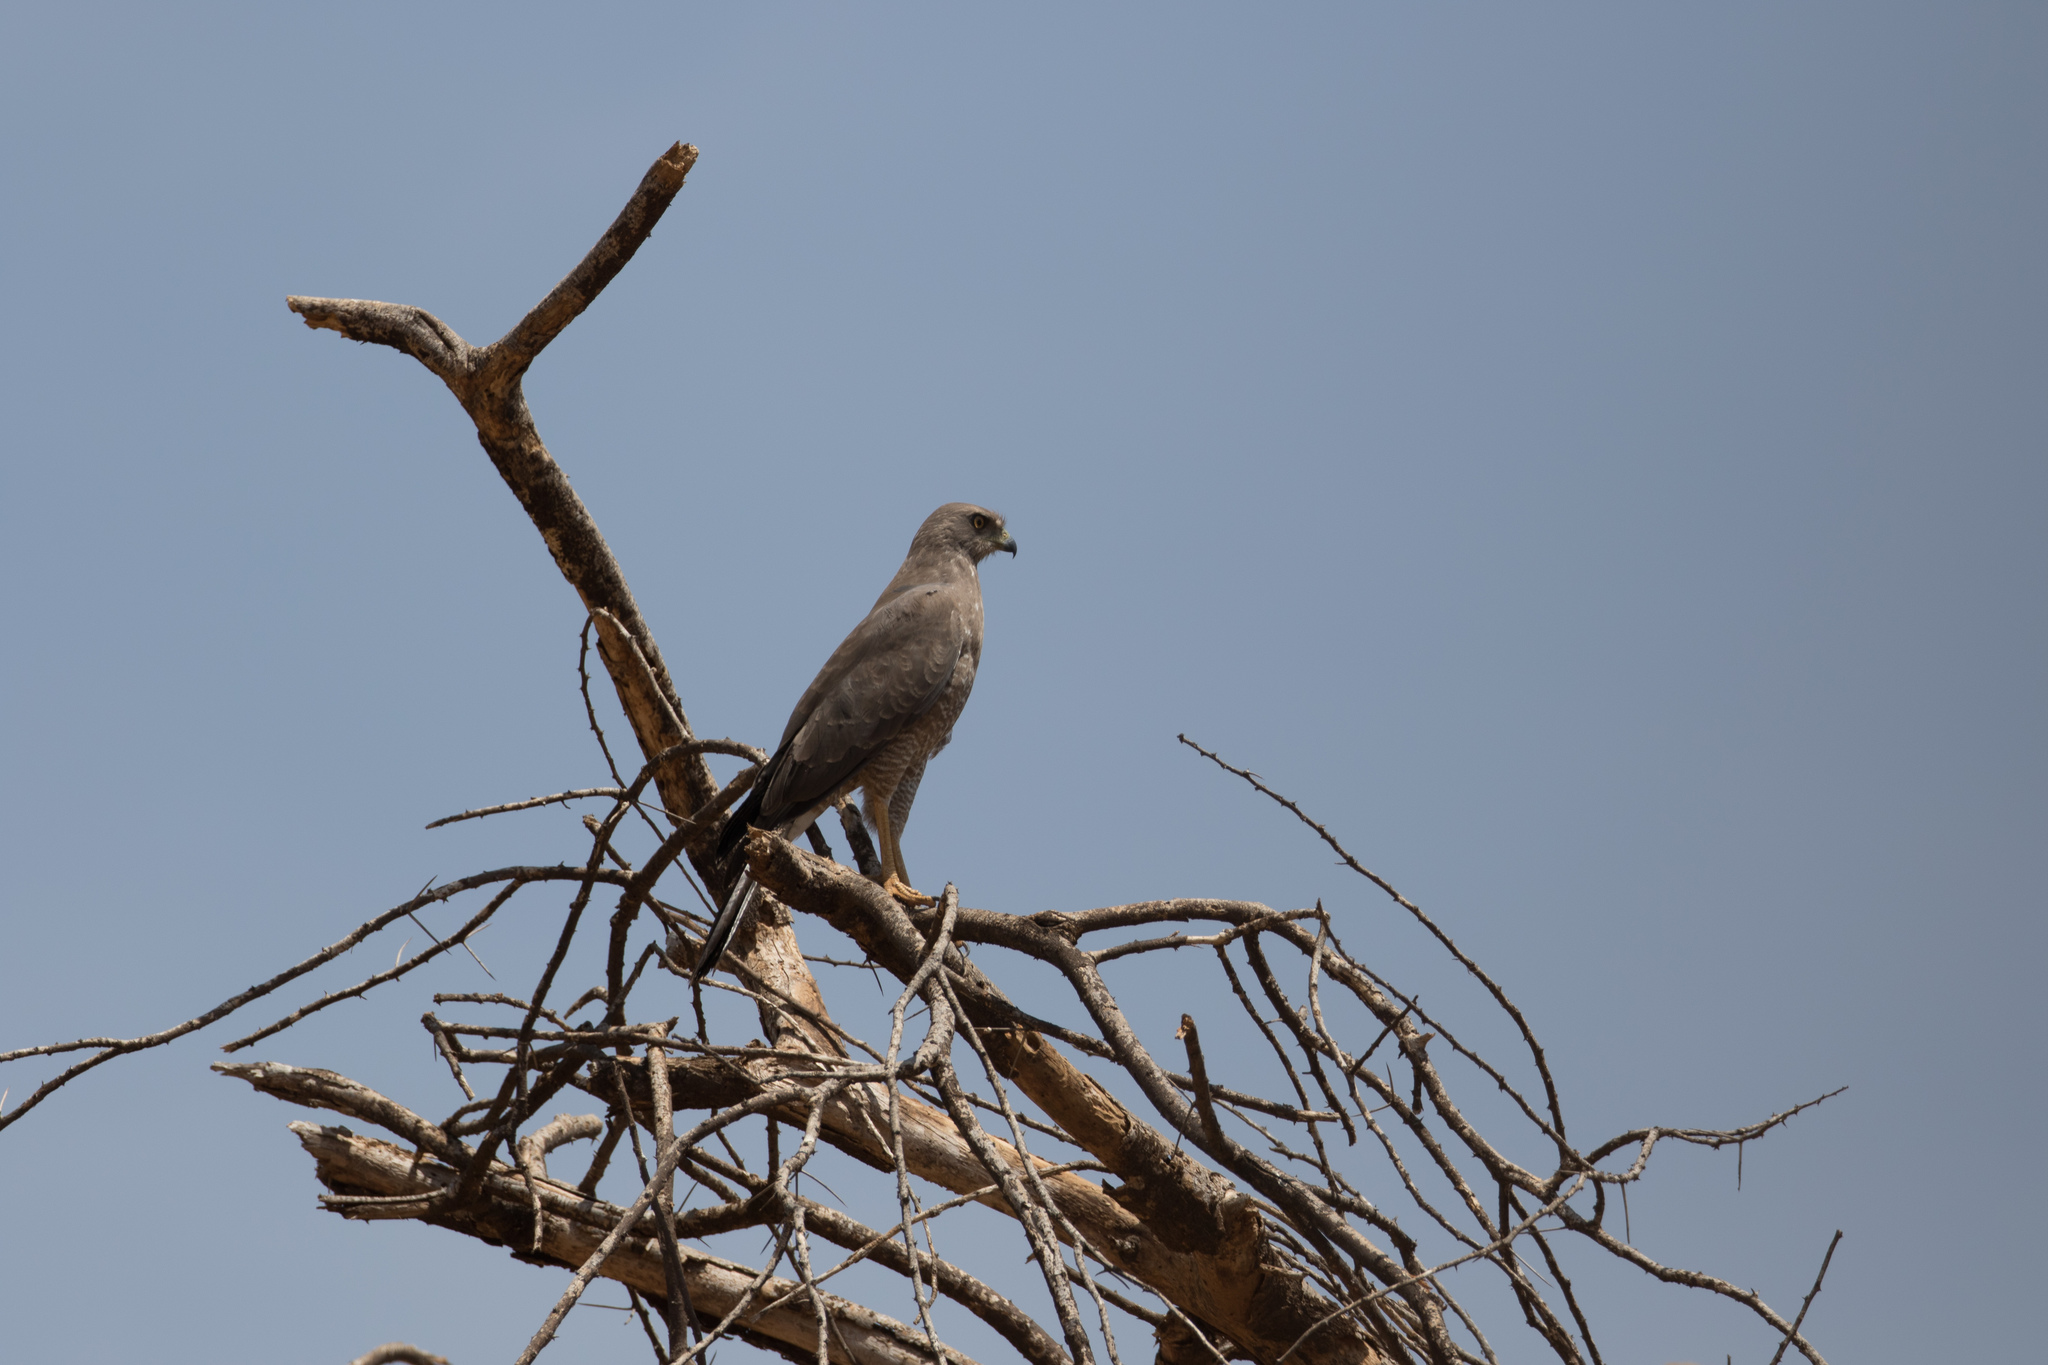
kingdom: Animalia
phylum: Chordata
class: Aves
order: Accipitriformes
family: Accipitridae
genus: Melierax
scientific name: Melierax poliopterus
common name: Eastern chanting goshawk
